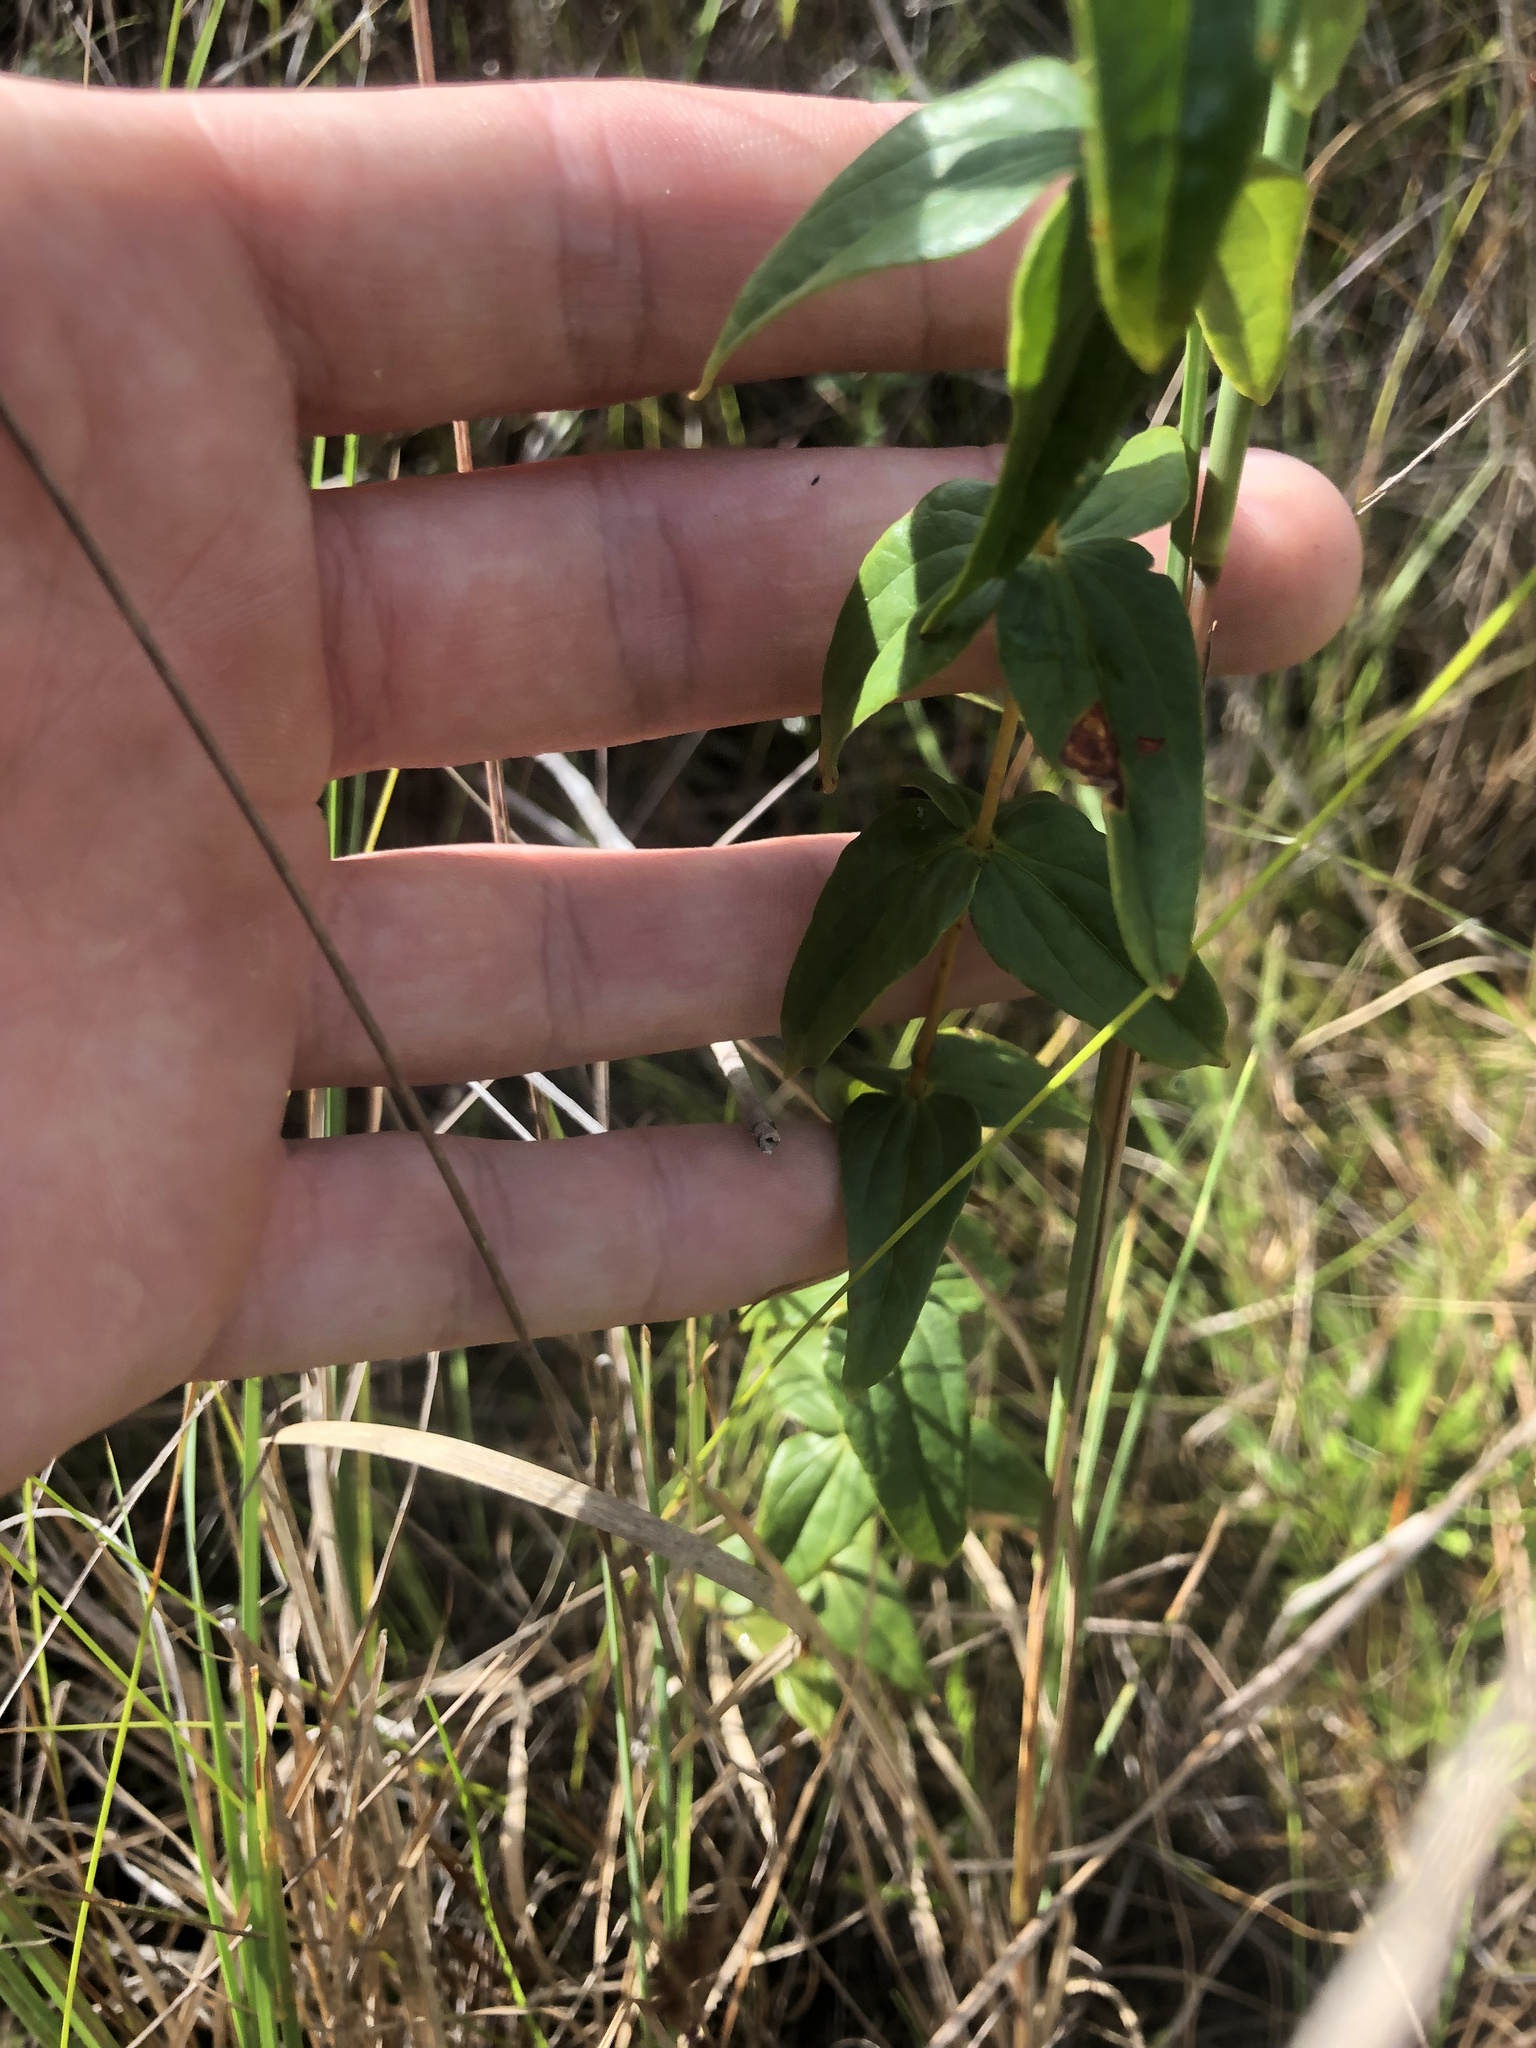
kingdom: Plantae
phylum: Tracheophyta
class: Magnoliopsida
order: Ericales
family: Primulaceae
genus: Lysimachia
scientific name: Lysimachia asperulifolia
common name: Rough-leaf loosestrife
